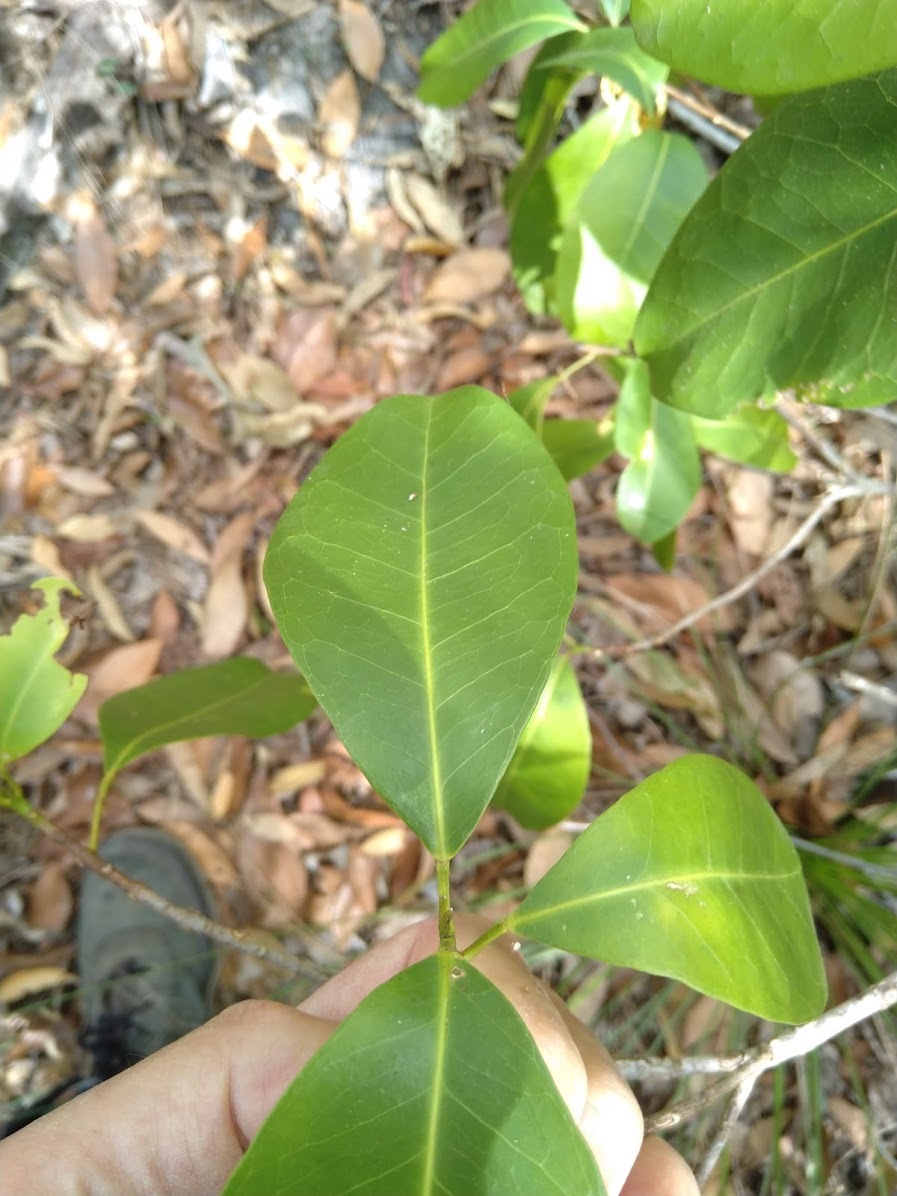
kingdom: Plantae
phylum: Tracheophyta
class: Magnoliopsida
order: Sapindales
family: Rutaceae
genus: Acronychia
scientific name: Acronychia imperforata
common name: Beach acronychia
